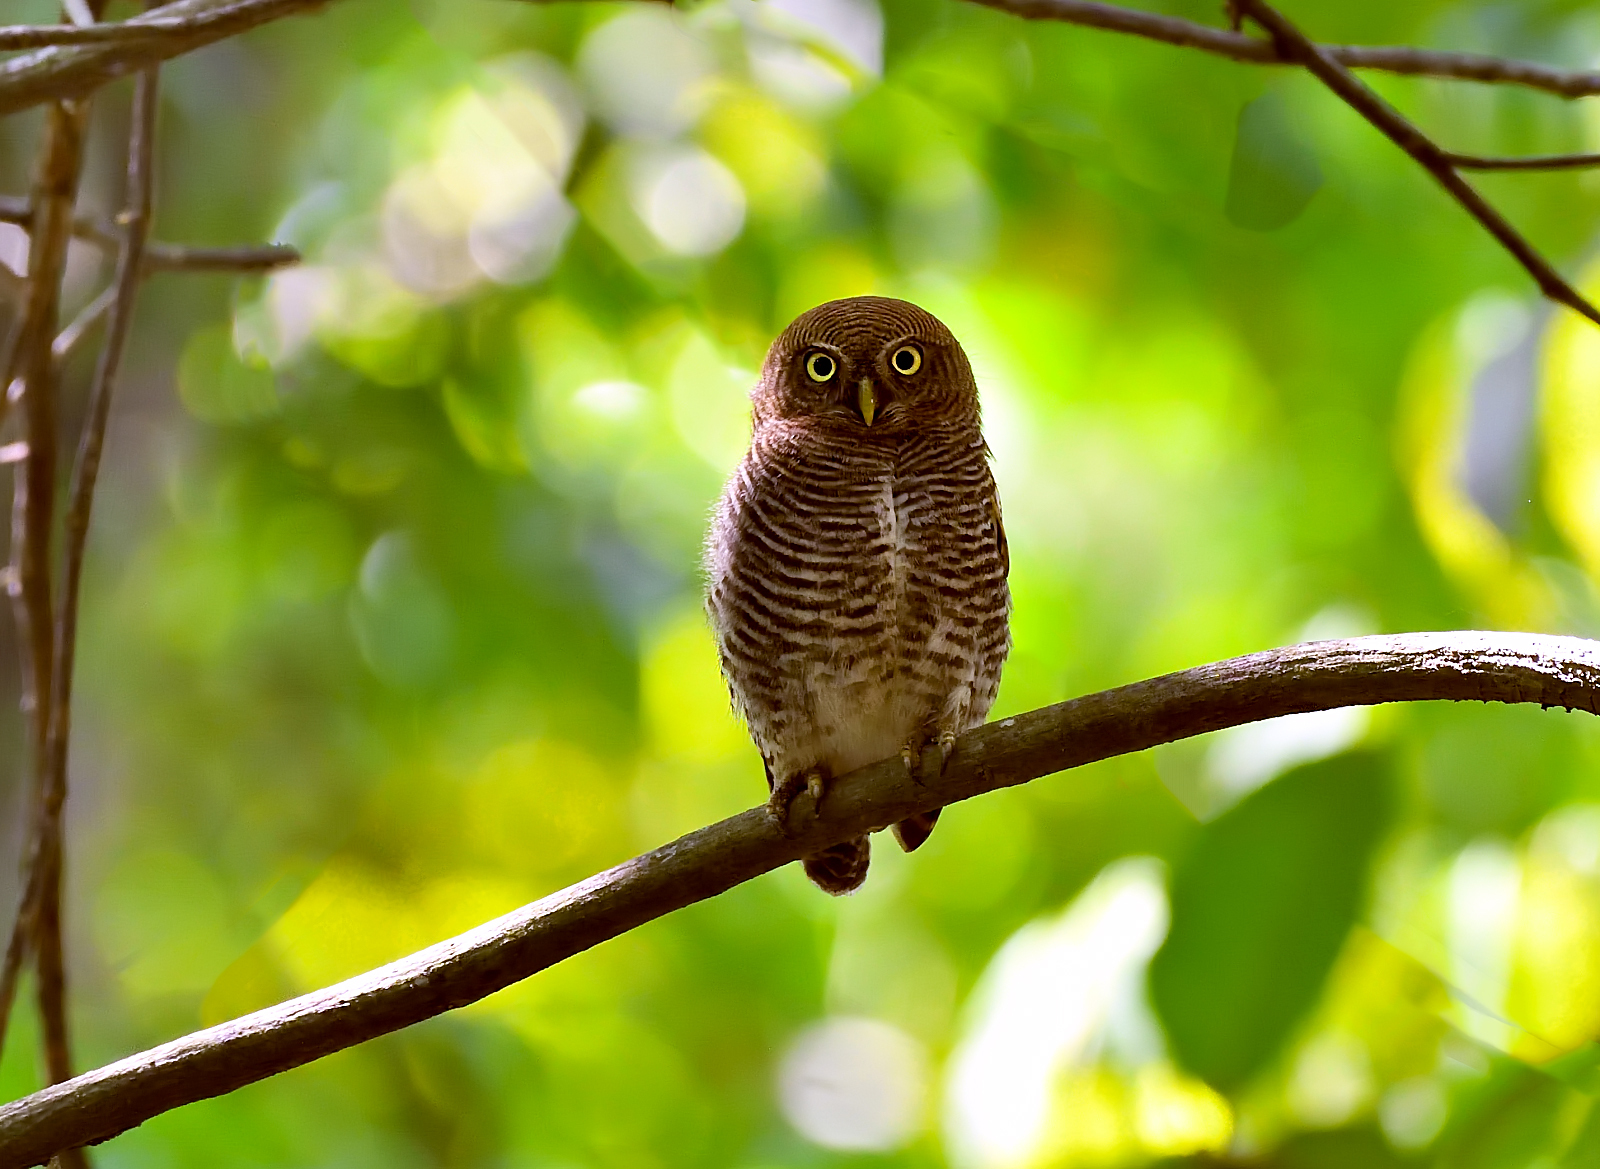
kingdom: Animalia
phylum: Chordata
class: Aves
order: Strigiformes
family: Strigidae
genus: Glaucidium
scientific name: Glaucidium radiatum
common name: Jungle owlet
